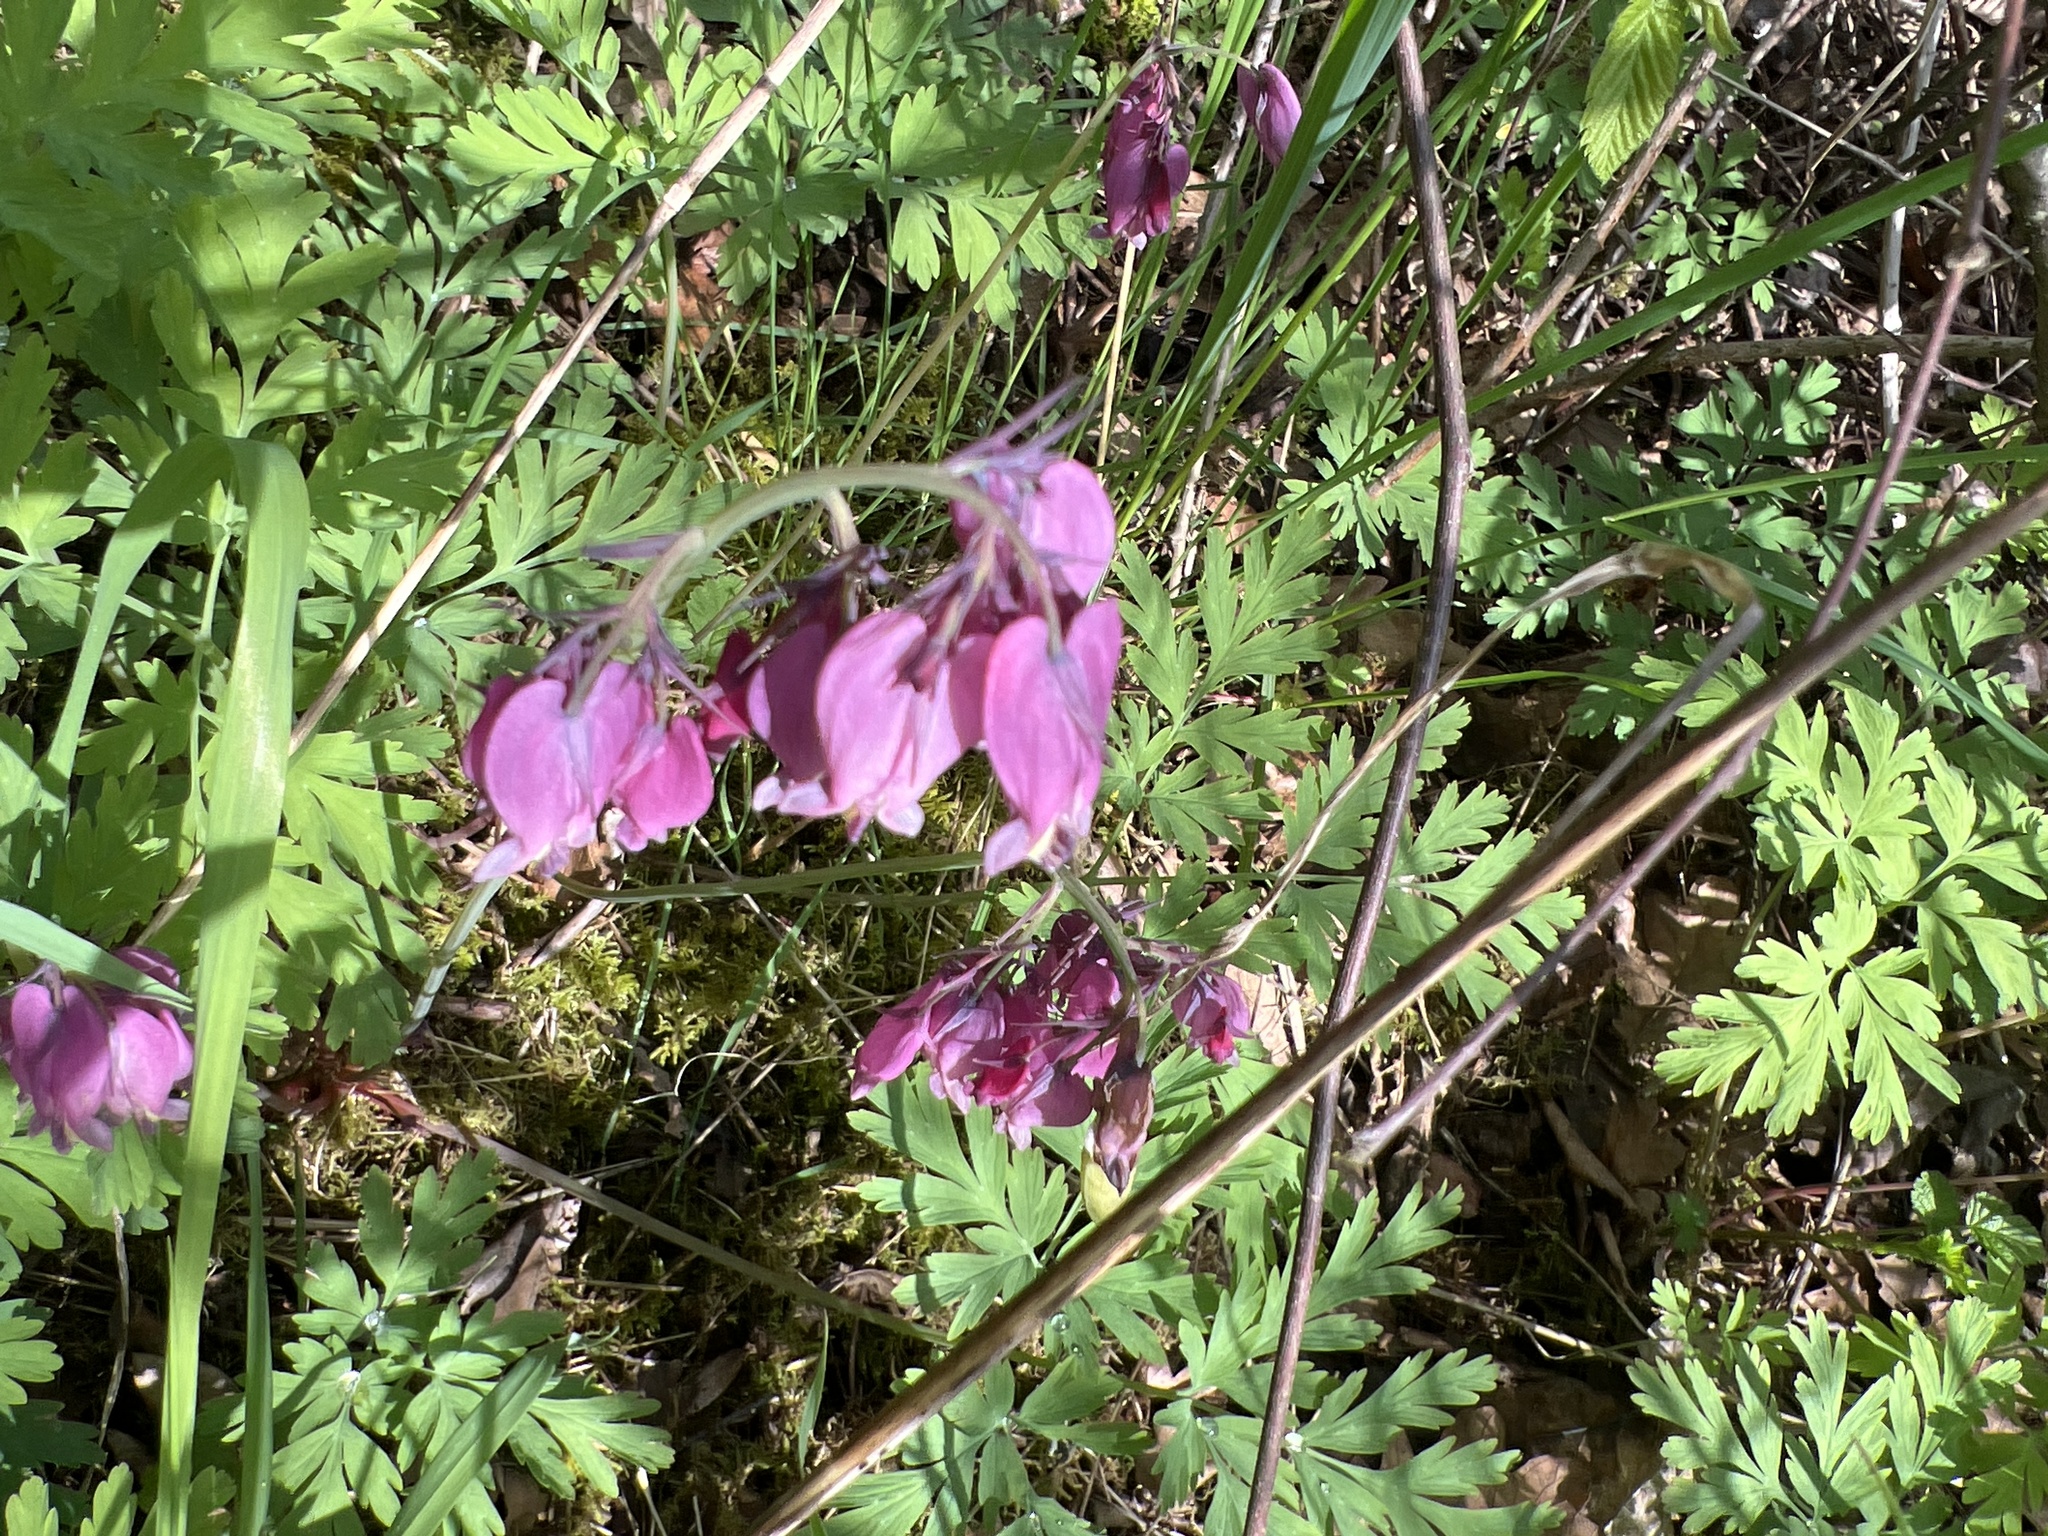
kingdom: Plantae
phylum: Tracheophyta
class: Magnoliopsida
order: Ranunculales
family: Papaveraceae
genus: Dicentra
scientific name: Dicentra formosa
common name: Bleeding-heart
